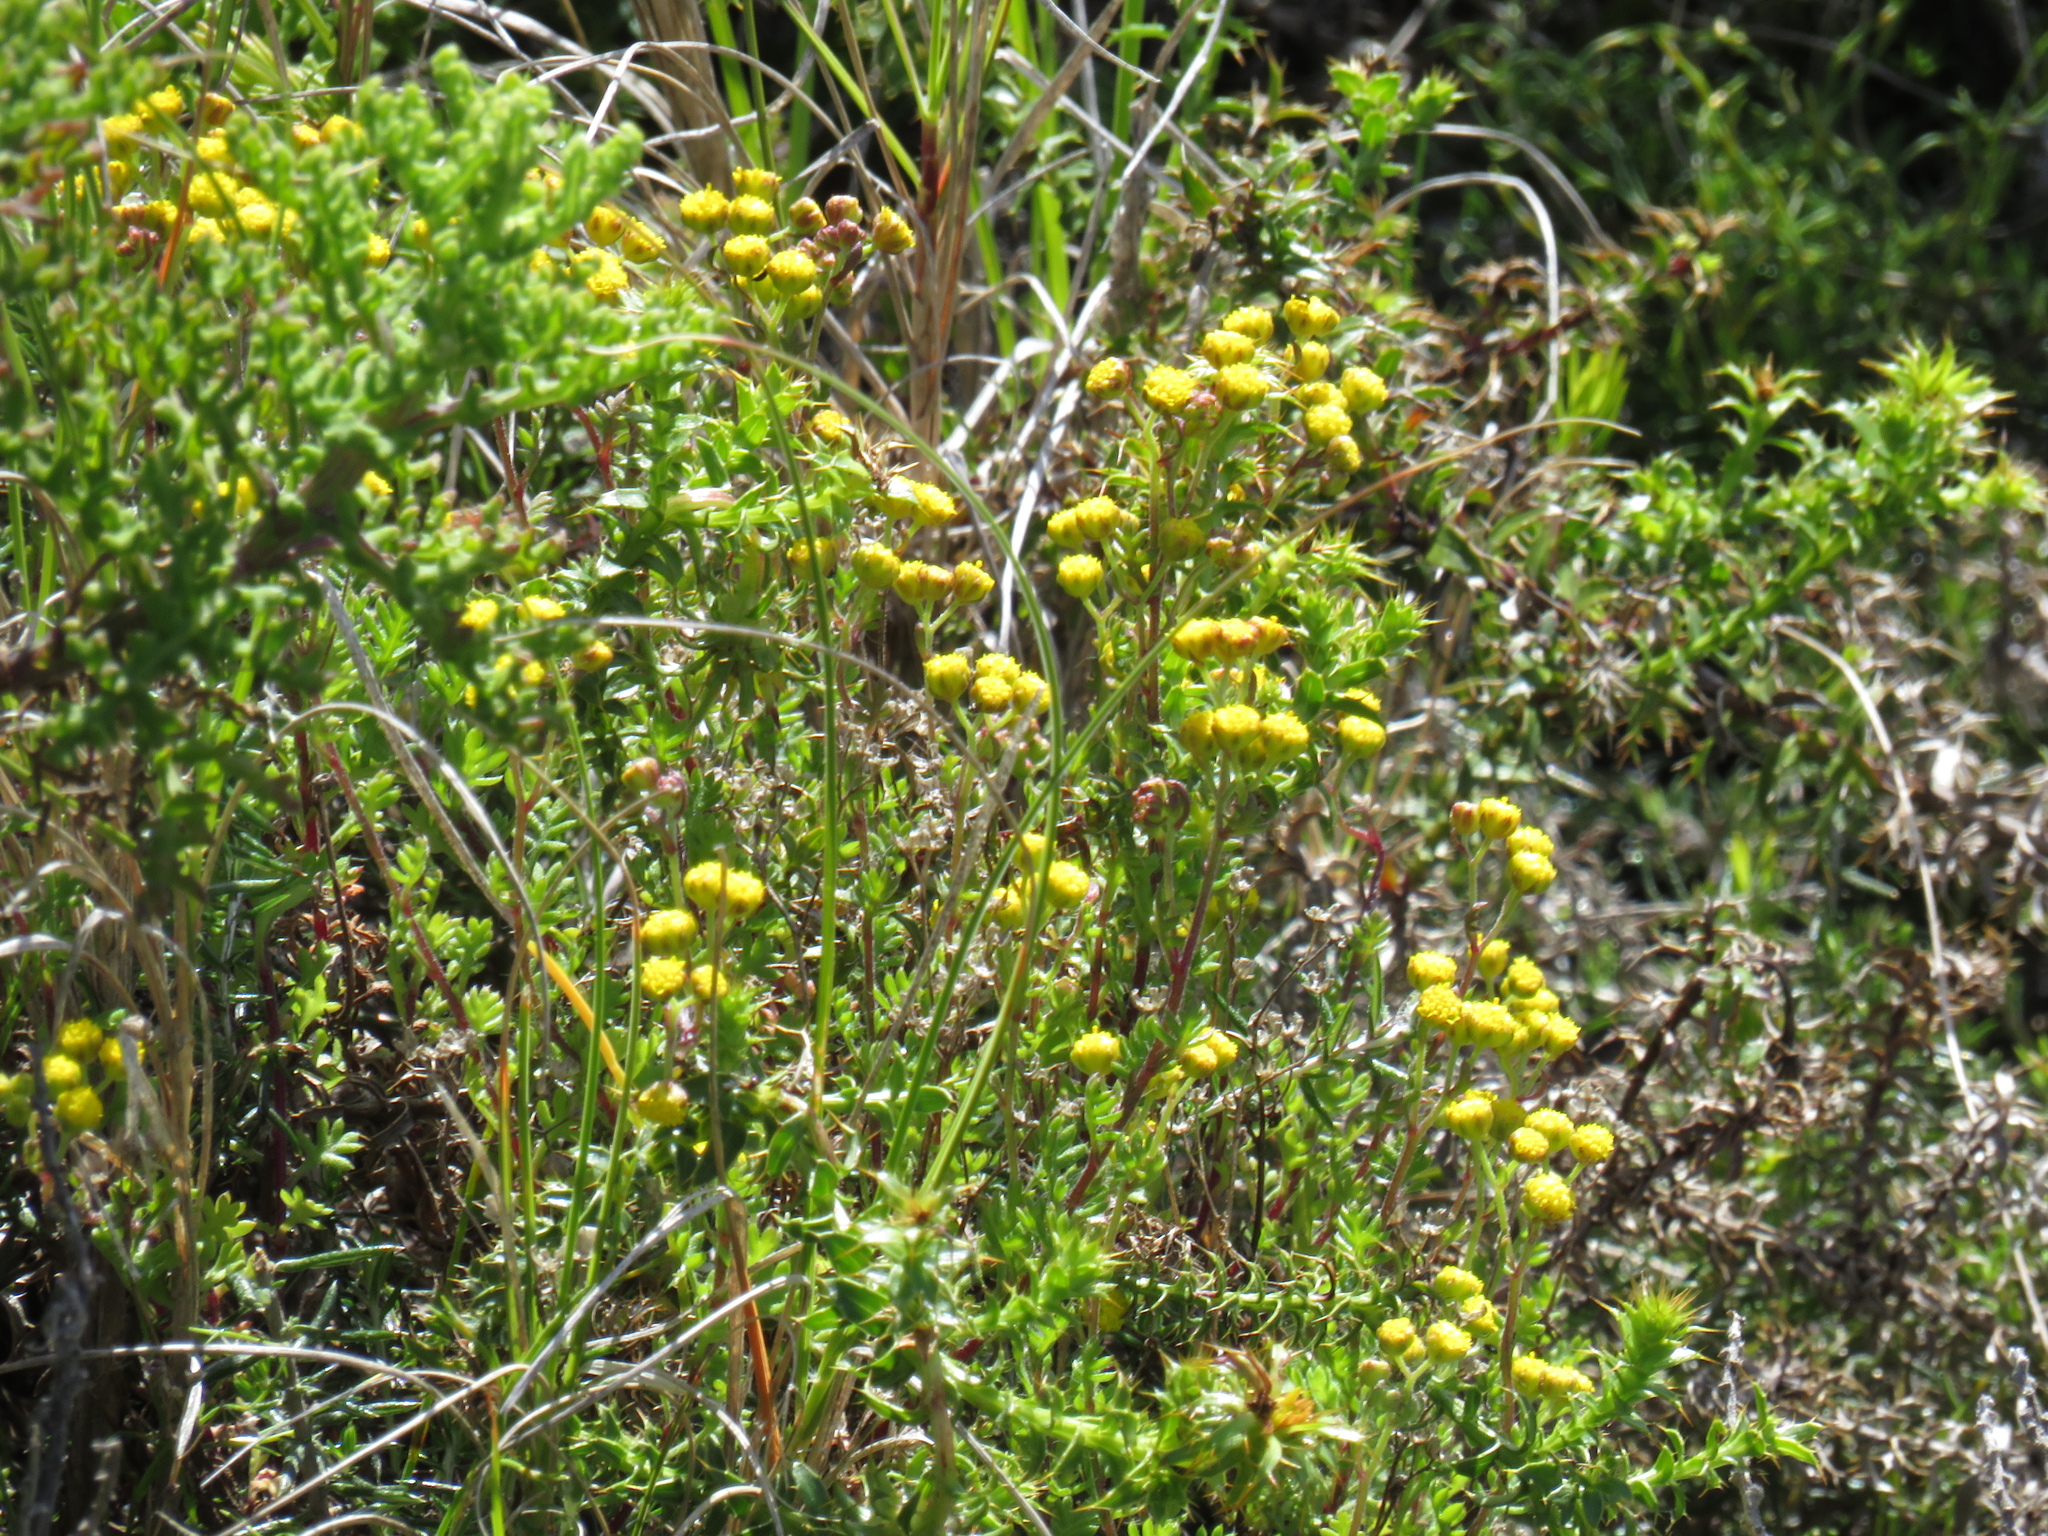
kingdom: Plantae
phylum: Tracheophyta
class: Magnoliopsida
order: Asterales
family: Asteraceae
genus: Hippia
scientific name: Hippia pilosa
